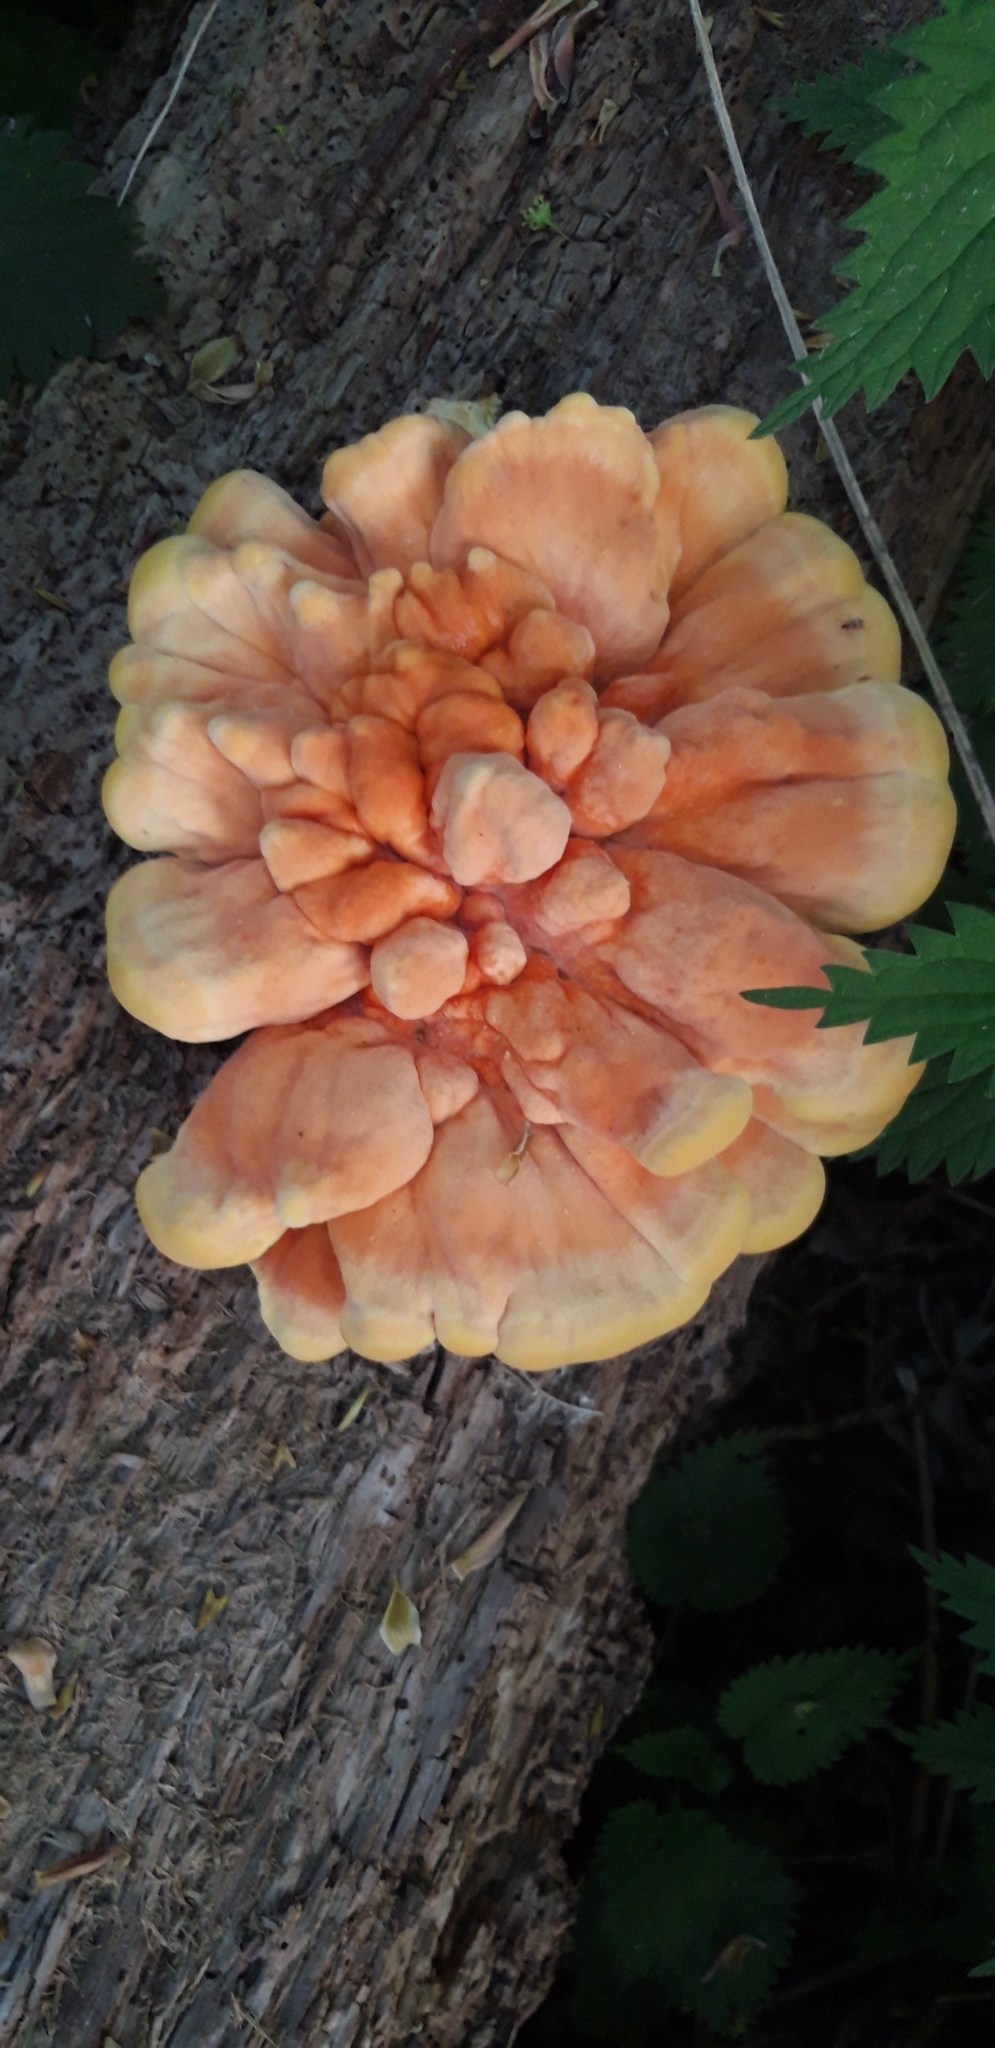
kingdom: Fungi
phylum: Basidiomycota
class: Agaricomycetes
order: Polyporales
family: Laetiporaceae
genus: Laetiporus
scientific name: Laetiporus sulphureus
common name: Chicken of the woods
